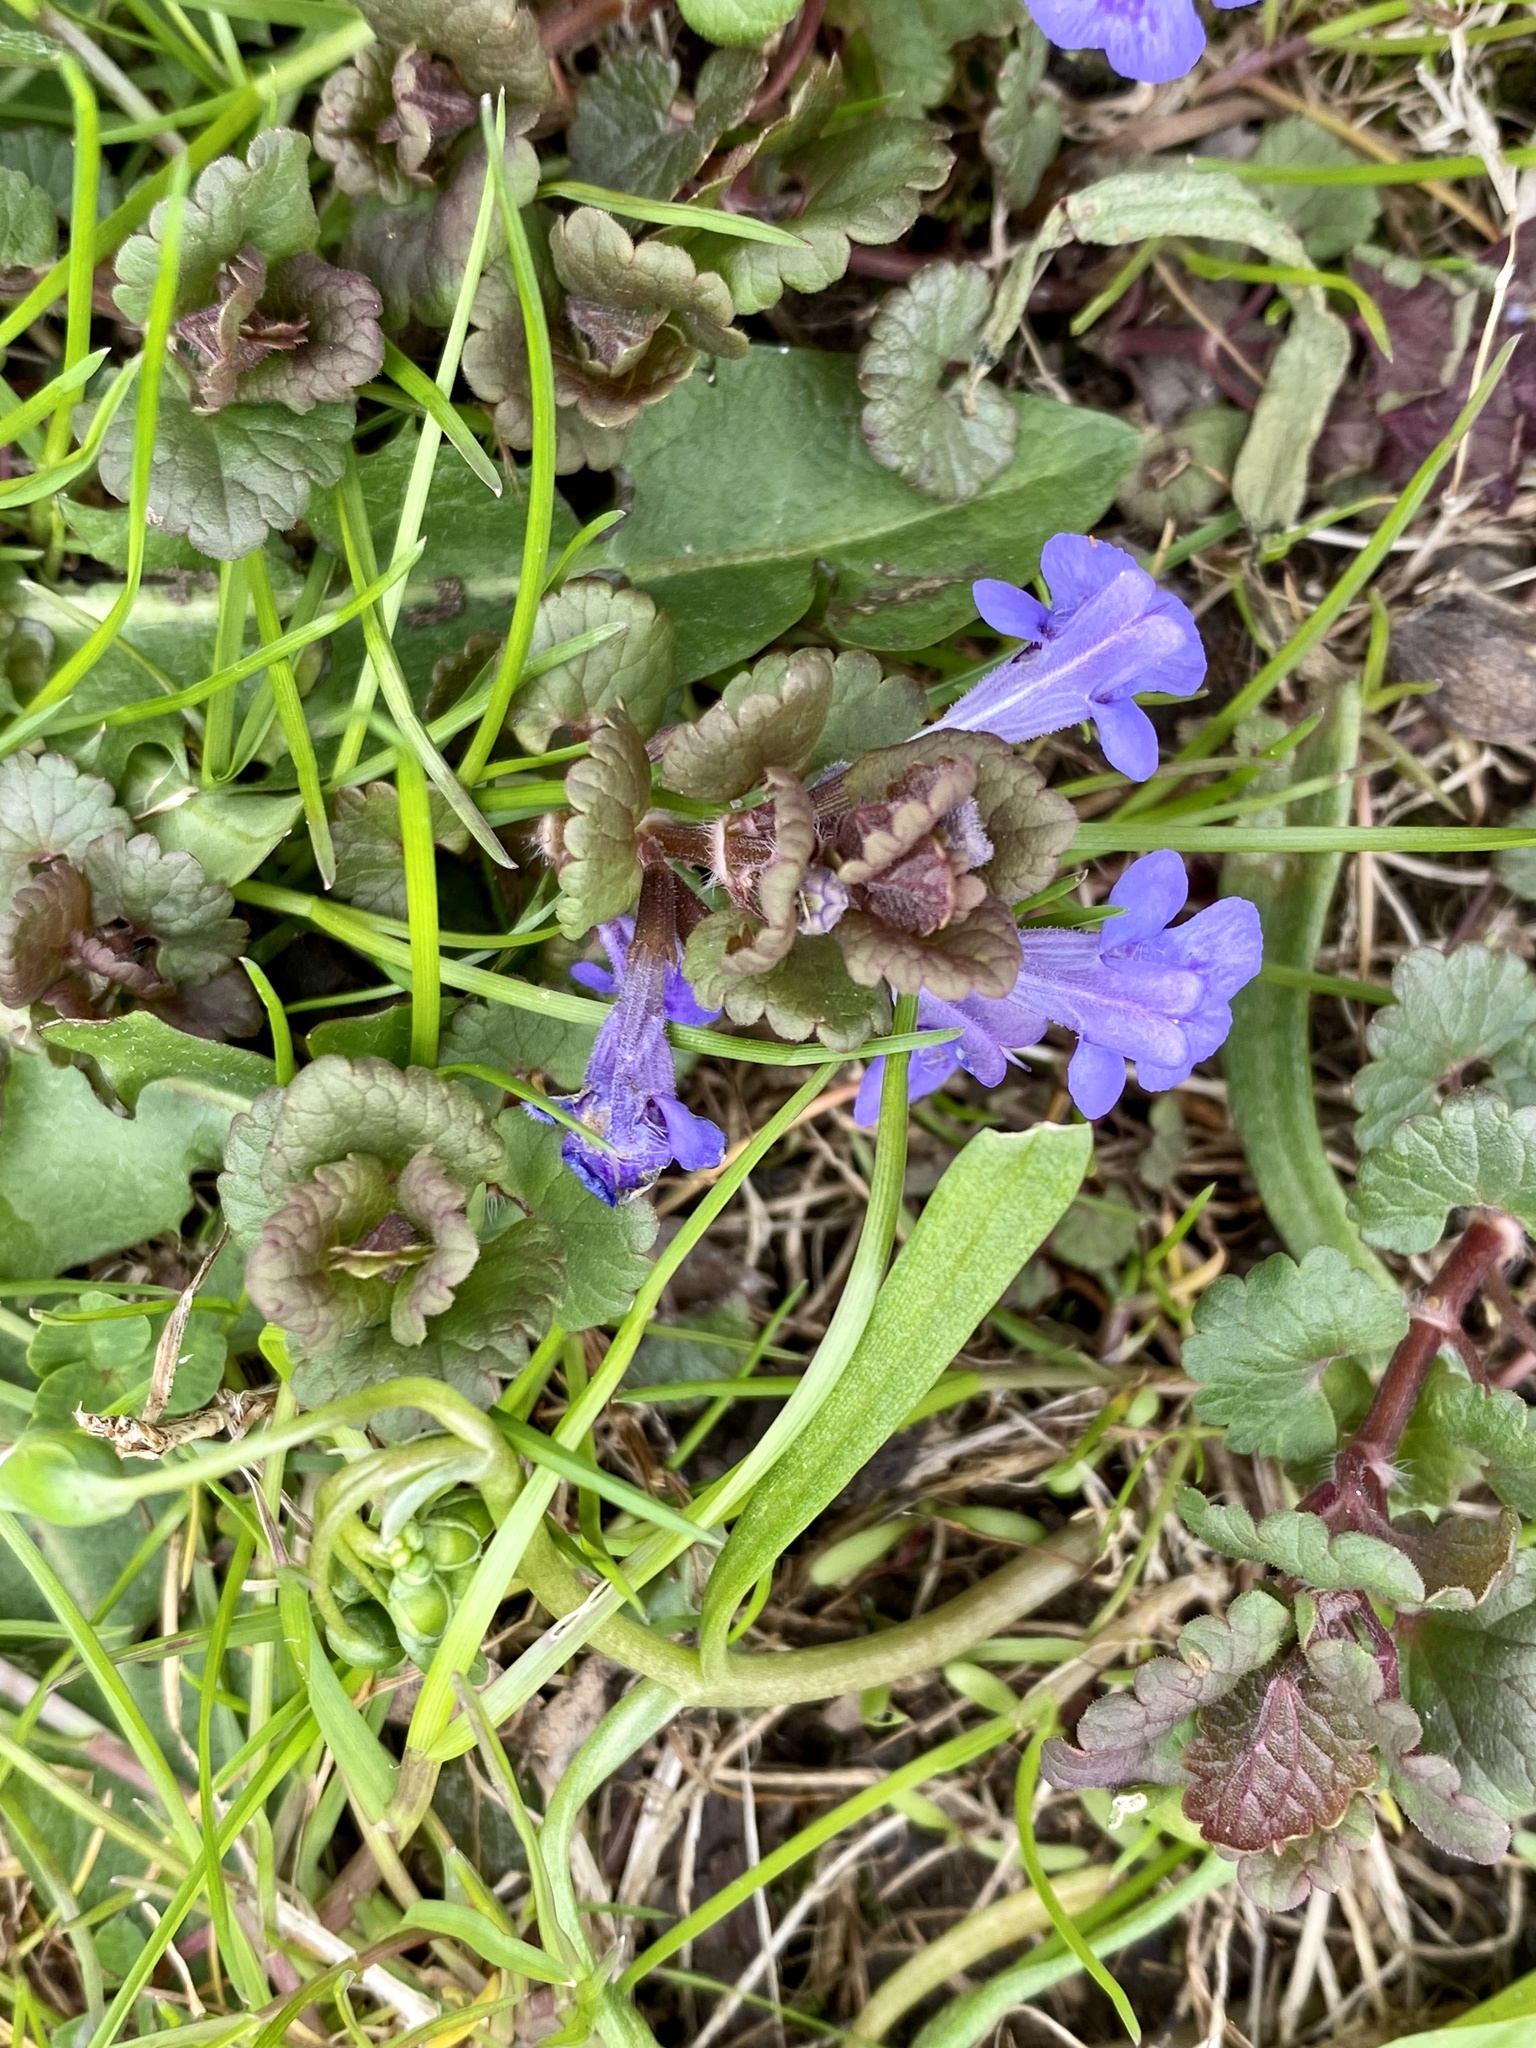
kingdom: Plantae
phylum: Tracheophyta
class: Magnoliopsida
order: Lamiales
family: Lamiaceae
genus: Glechoma
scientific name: Glechoma hederacea
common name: Ground ivy
